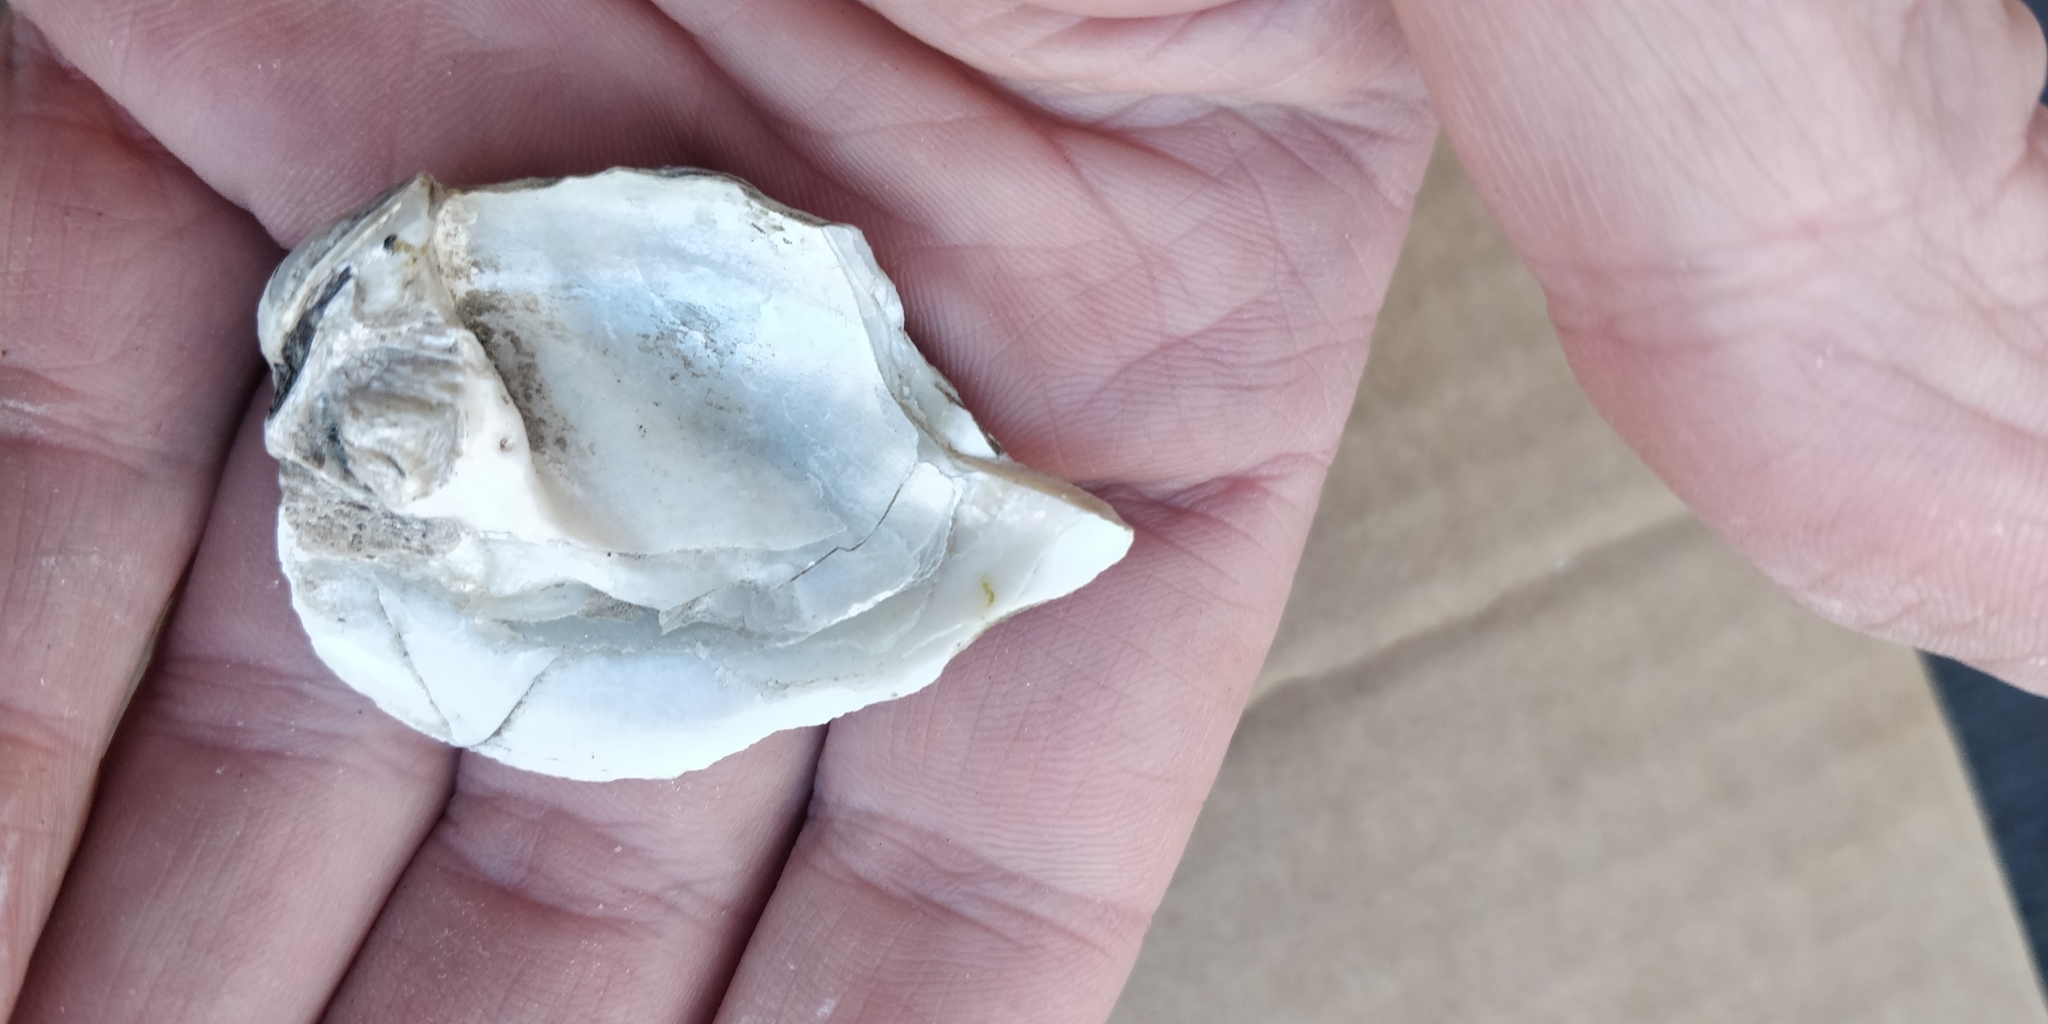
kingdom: Animalia
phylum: Mollusca
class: Bivalvia
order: Unionida
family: Unionidae
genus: Amblema
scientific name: Amblema plicata
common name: Threeridge
